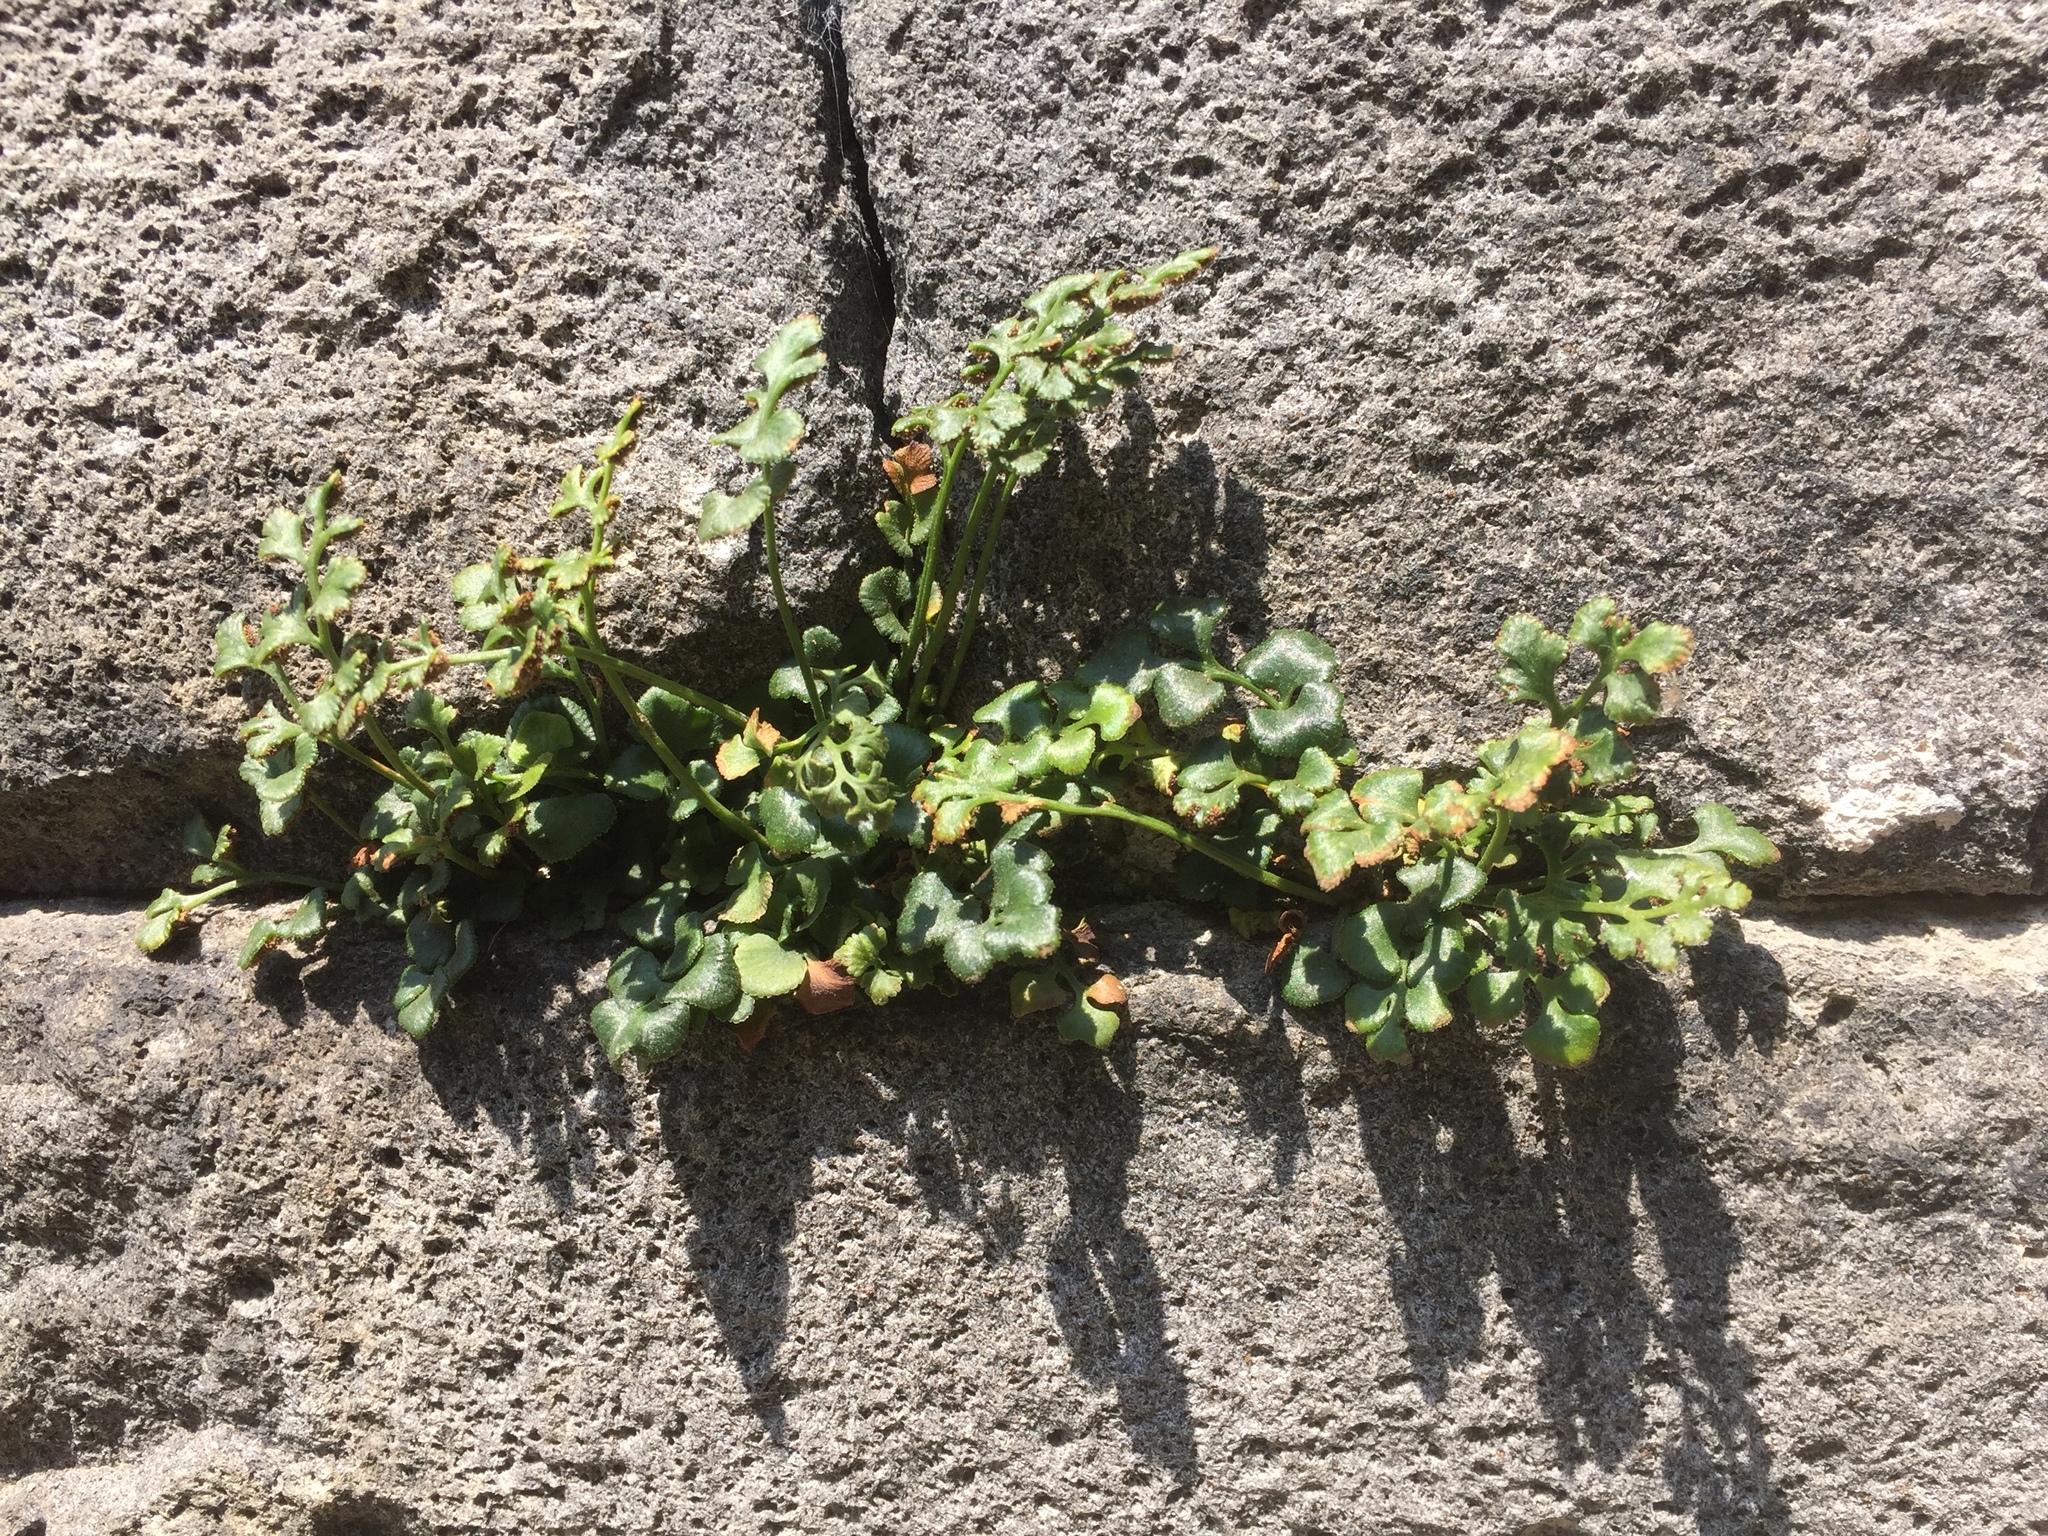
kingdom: Plantae
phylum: Tracheophyta
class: Polypodiopsida
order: Polypodiales
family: Aspleniaceae
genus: Asplenium
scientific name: Asplenium ruta-muraria
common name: Wall-rue
